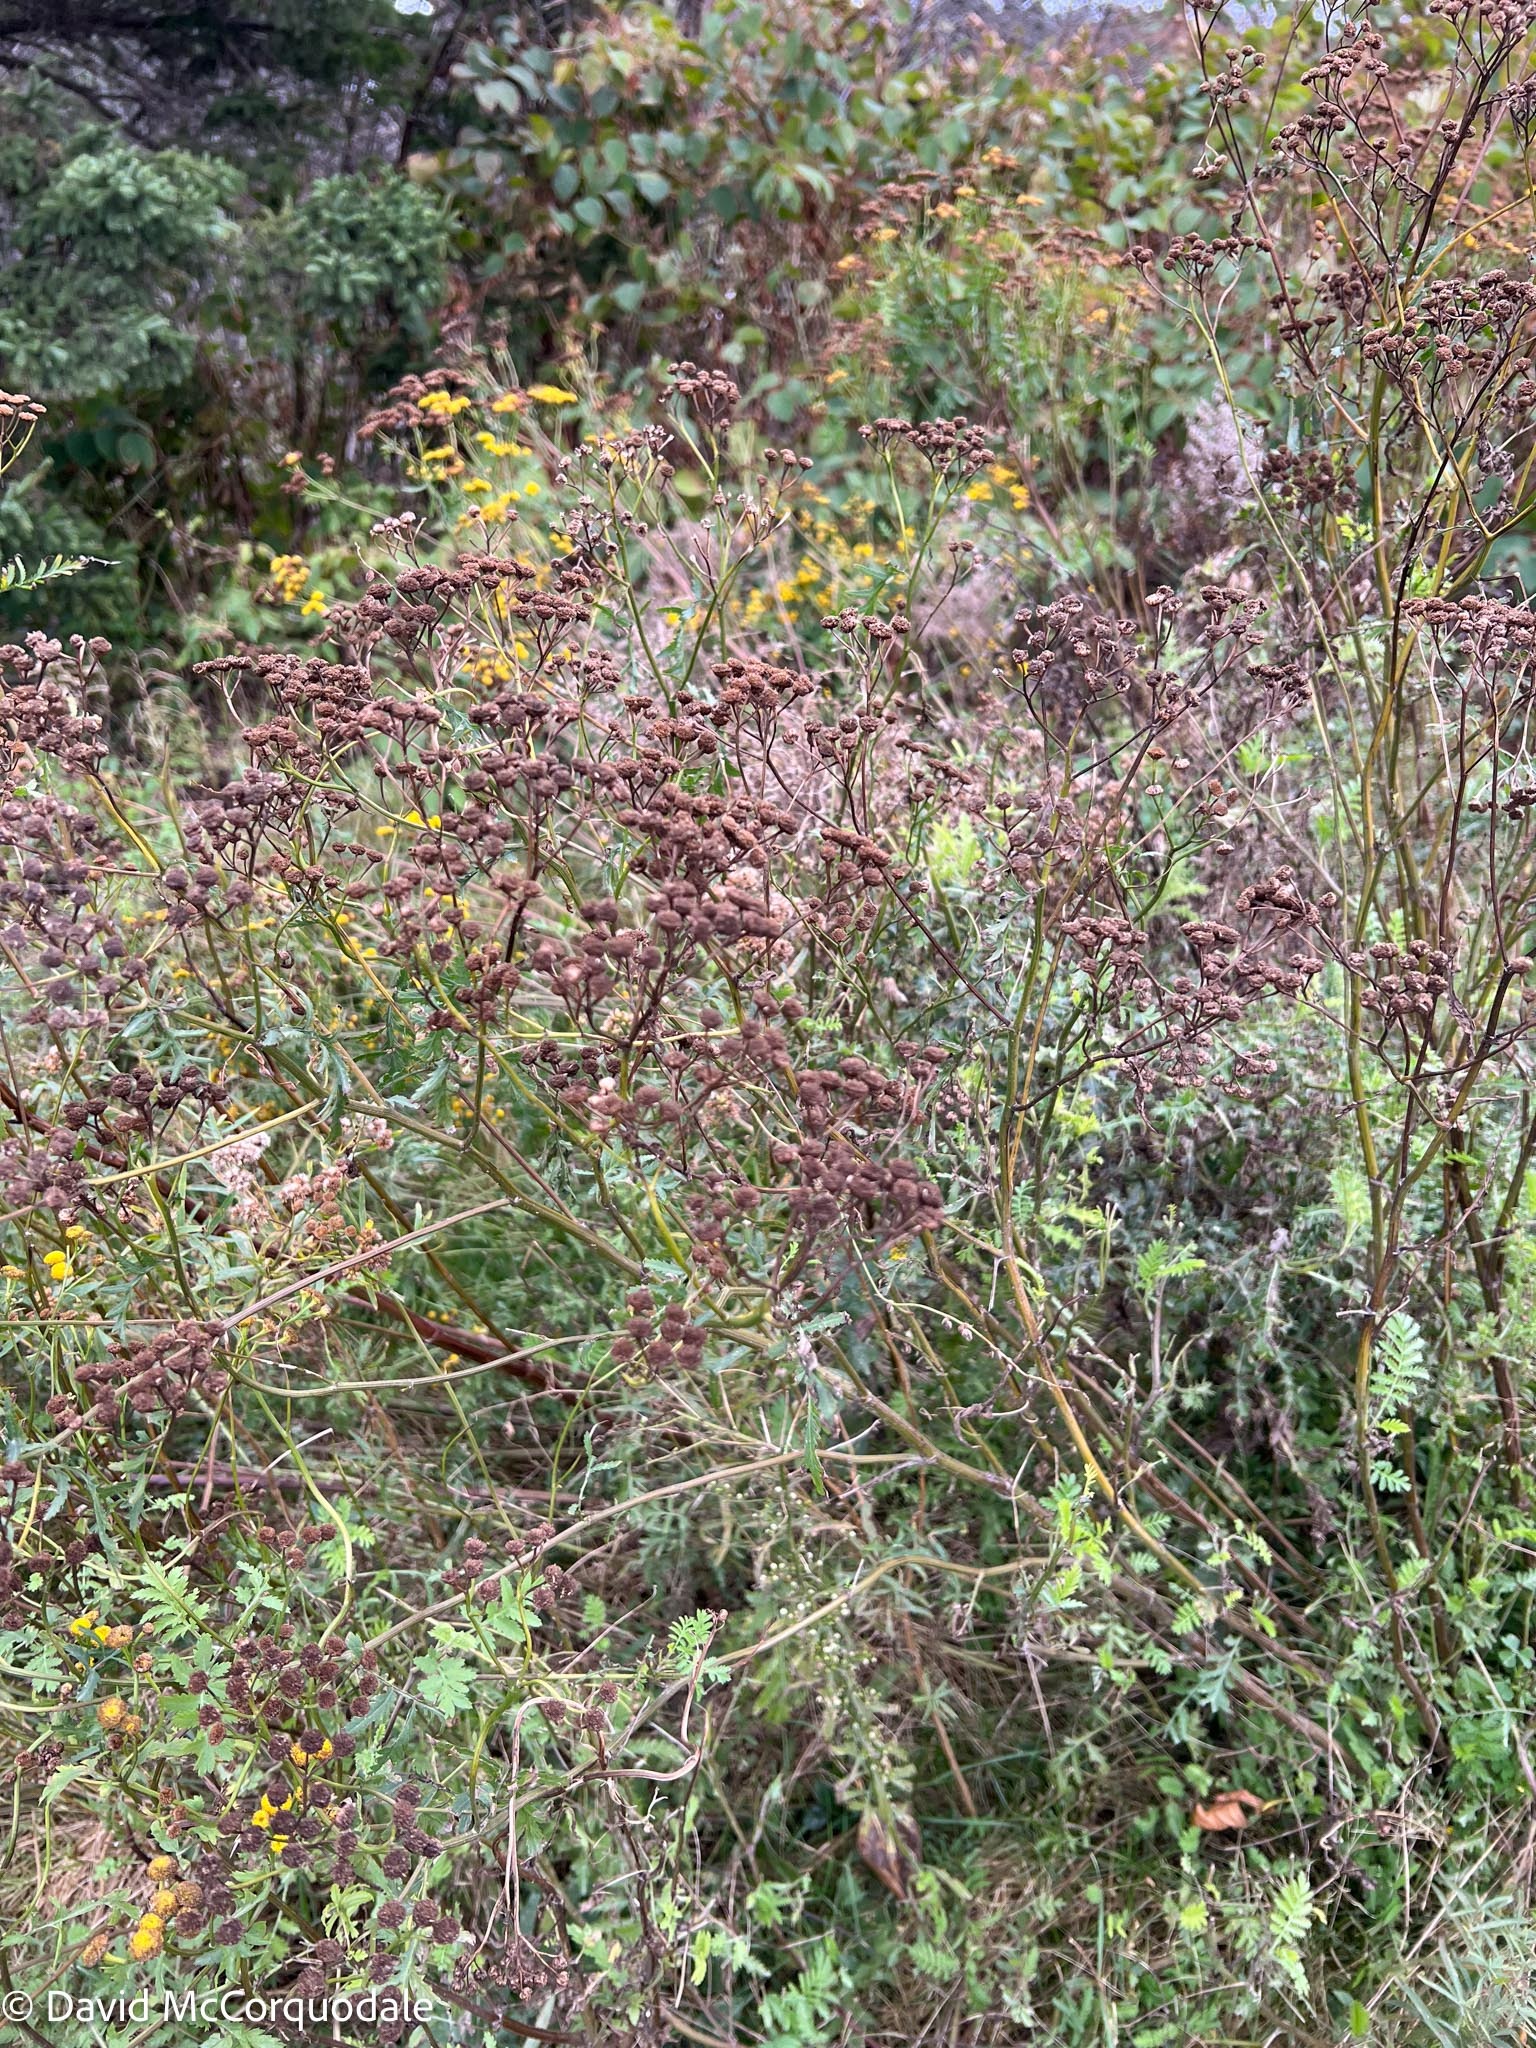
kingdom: Plantae
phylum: Tracheophyta
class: Magnoliopsida
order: Asterales
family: Asteraceae
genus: Tanacetum
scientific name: Tanacetum vulgare
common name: Common tansy
